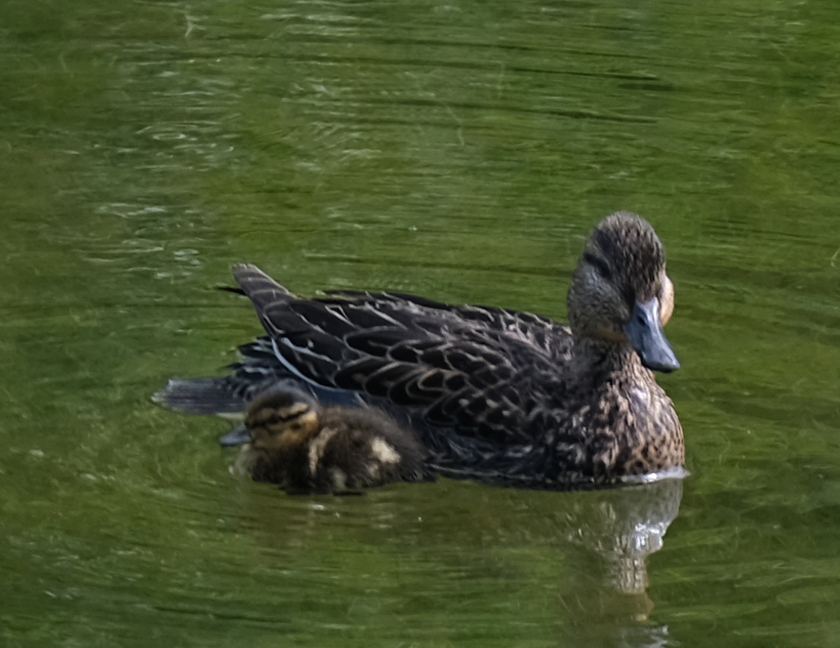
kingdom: Animalia
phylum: Chordata
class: Aves
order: Anseriformes
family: Anatidae
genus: Anas
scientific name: Anas platyrhynchos
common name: Mallard
